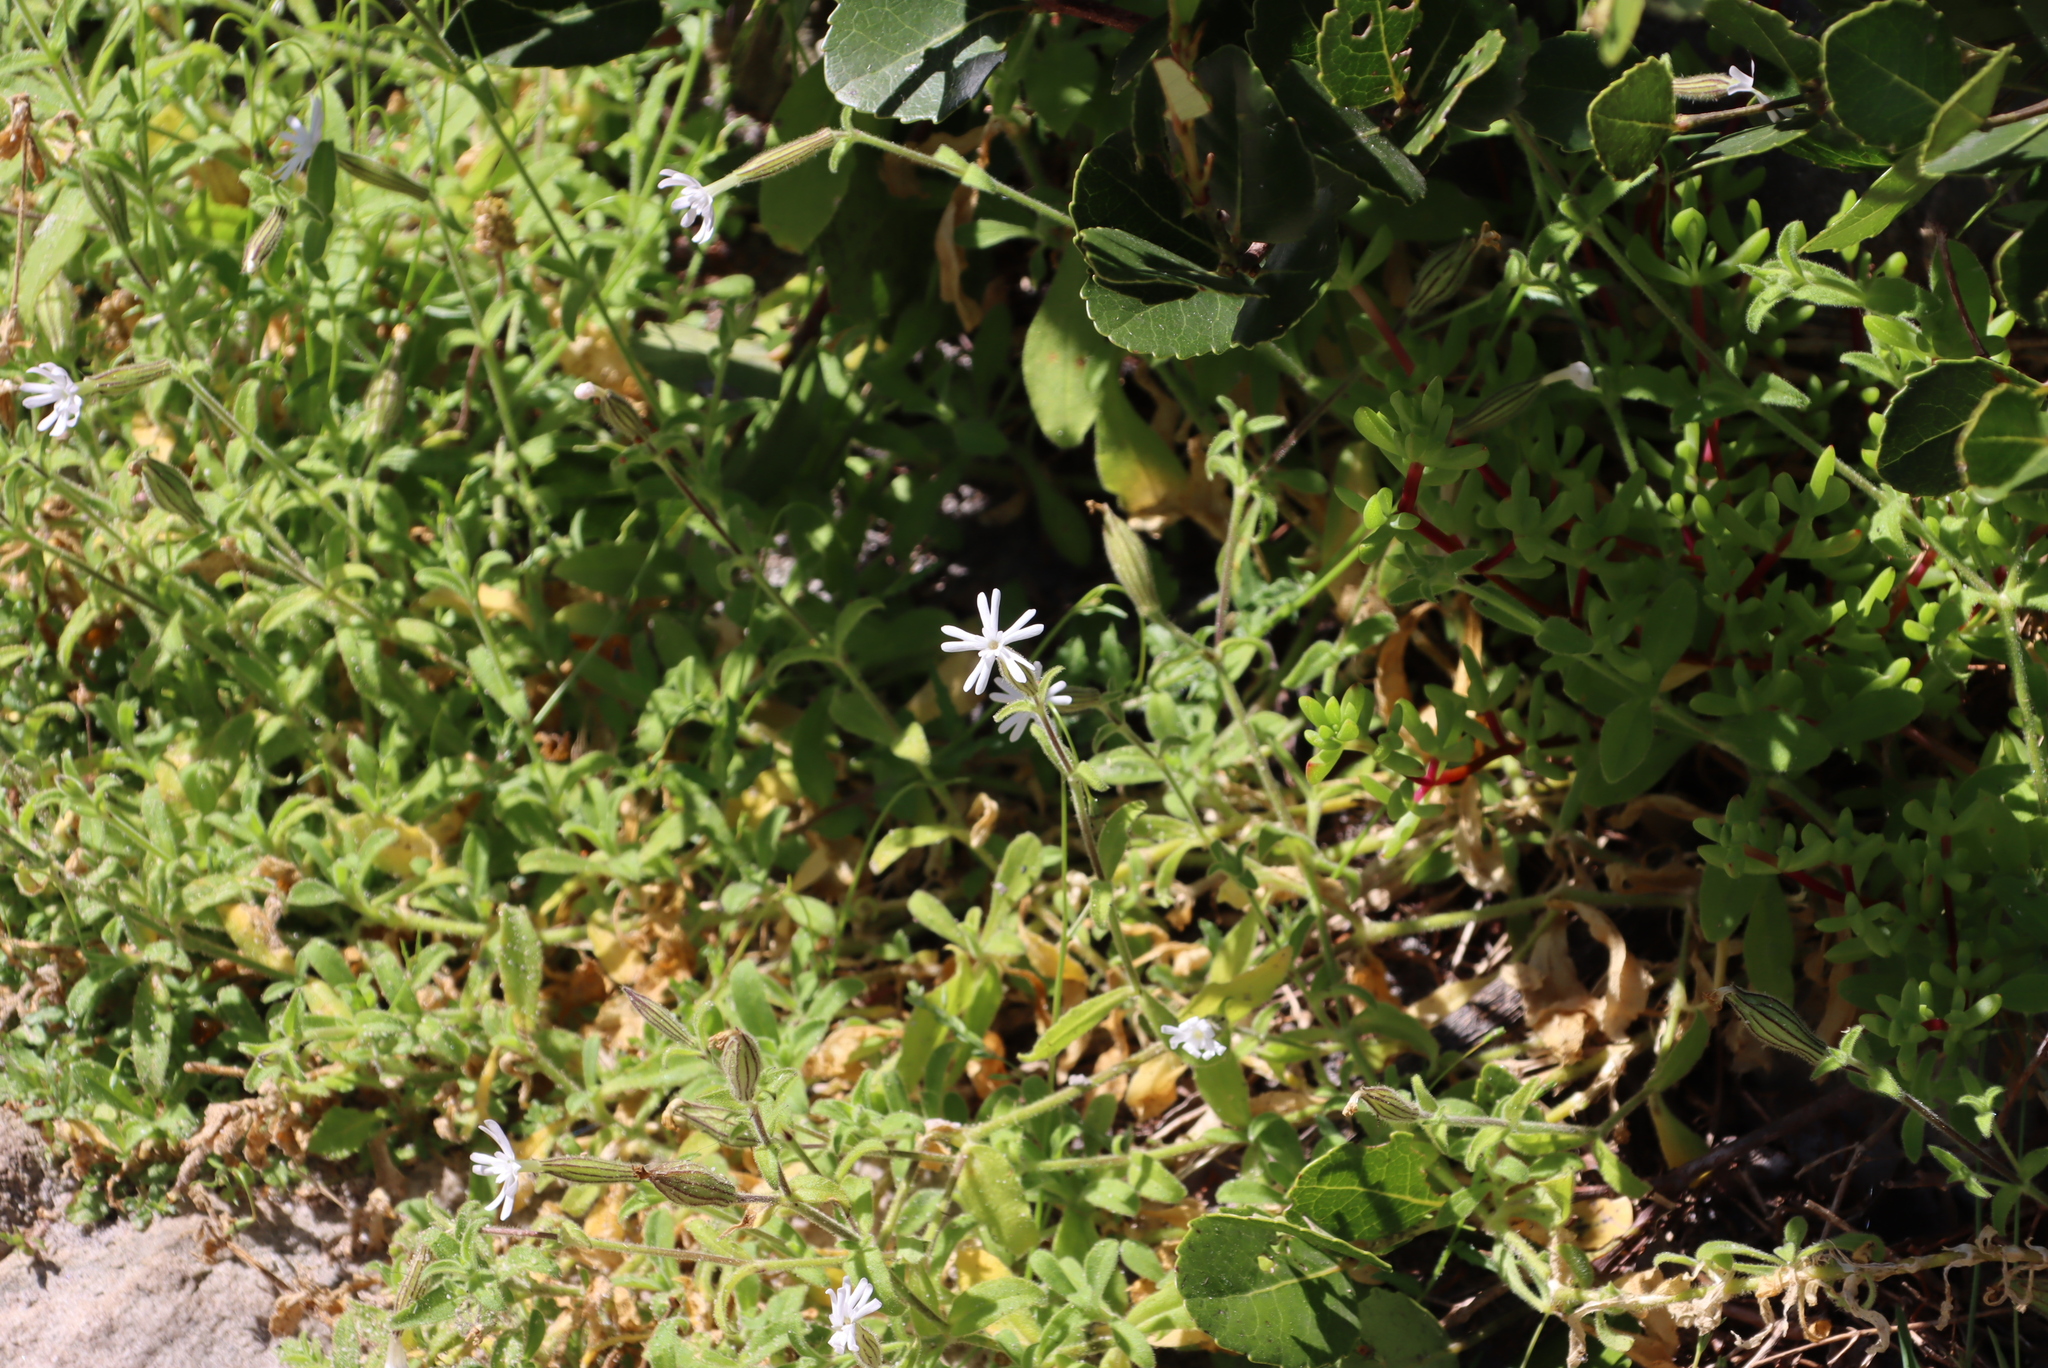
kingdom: Plantae
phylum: Tracheophyta
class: Magnoliopsida
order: Caryophyllales
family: Caryophyllaceae
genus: Silene
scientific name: Silene undulata
